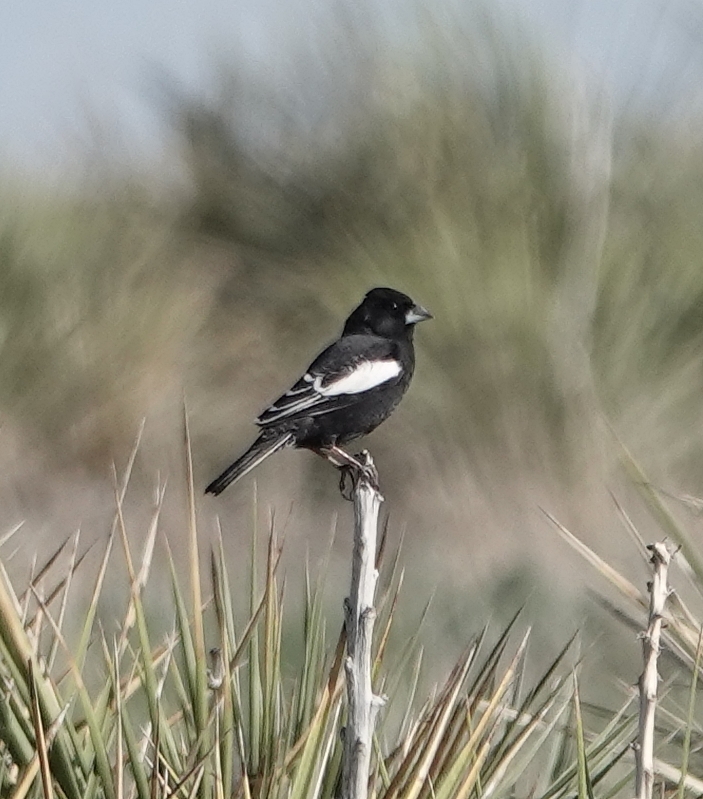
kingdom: Animalia
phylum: Chordata
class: Aves
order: Passeriformes
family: Passerellidae
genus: Calamospiza
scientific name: Calamospiza melanocorys
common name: Lark bunting
